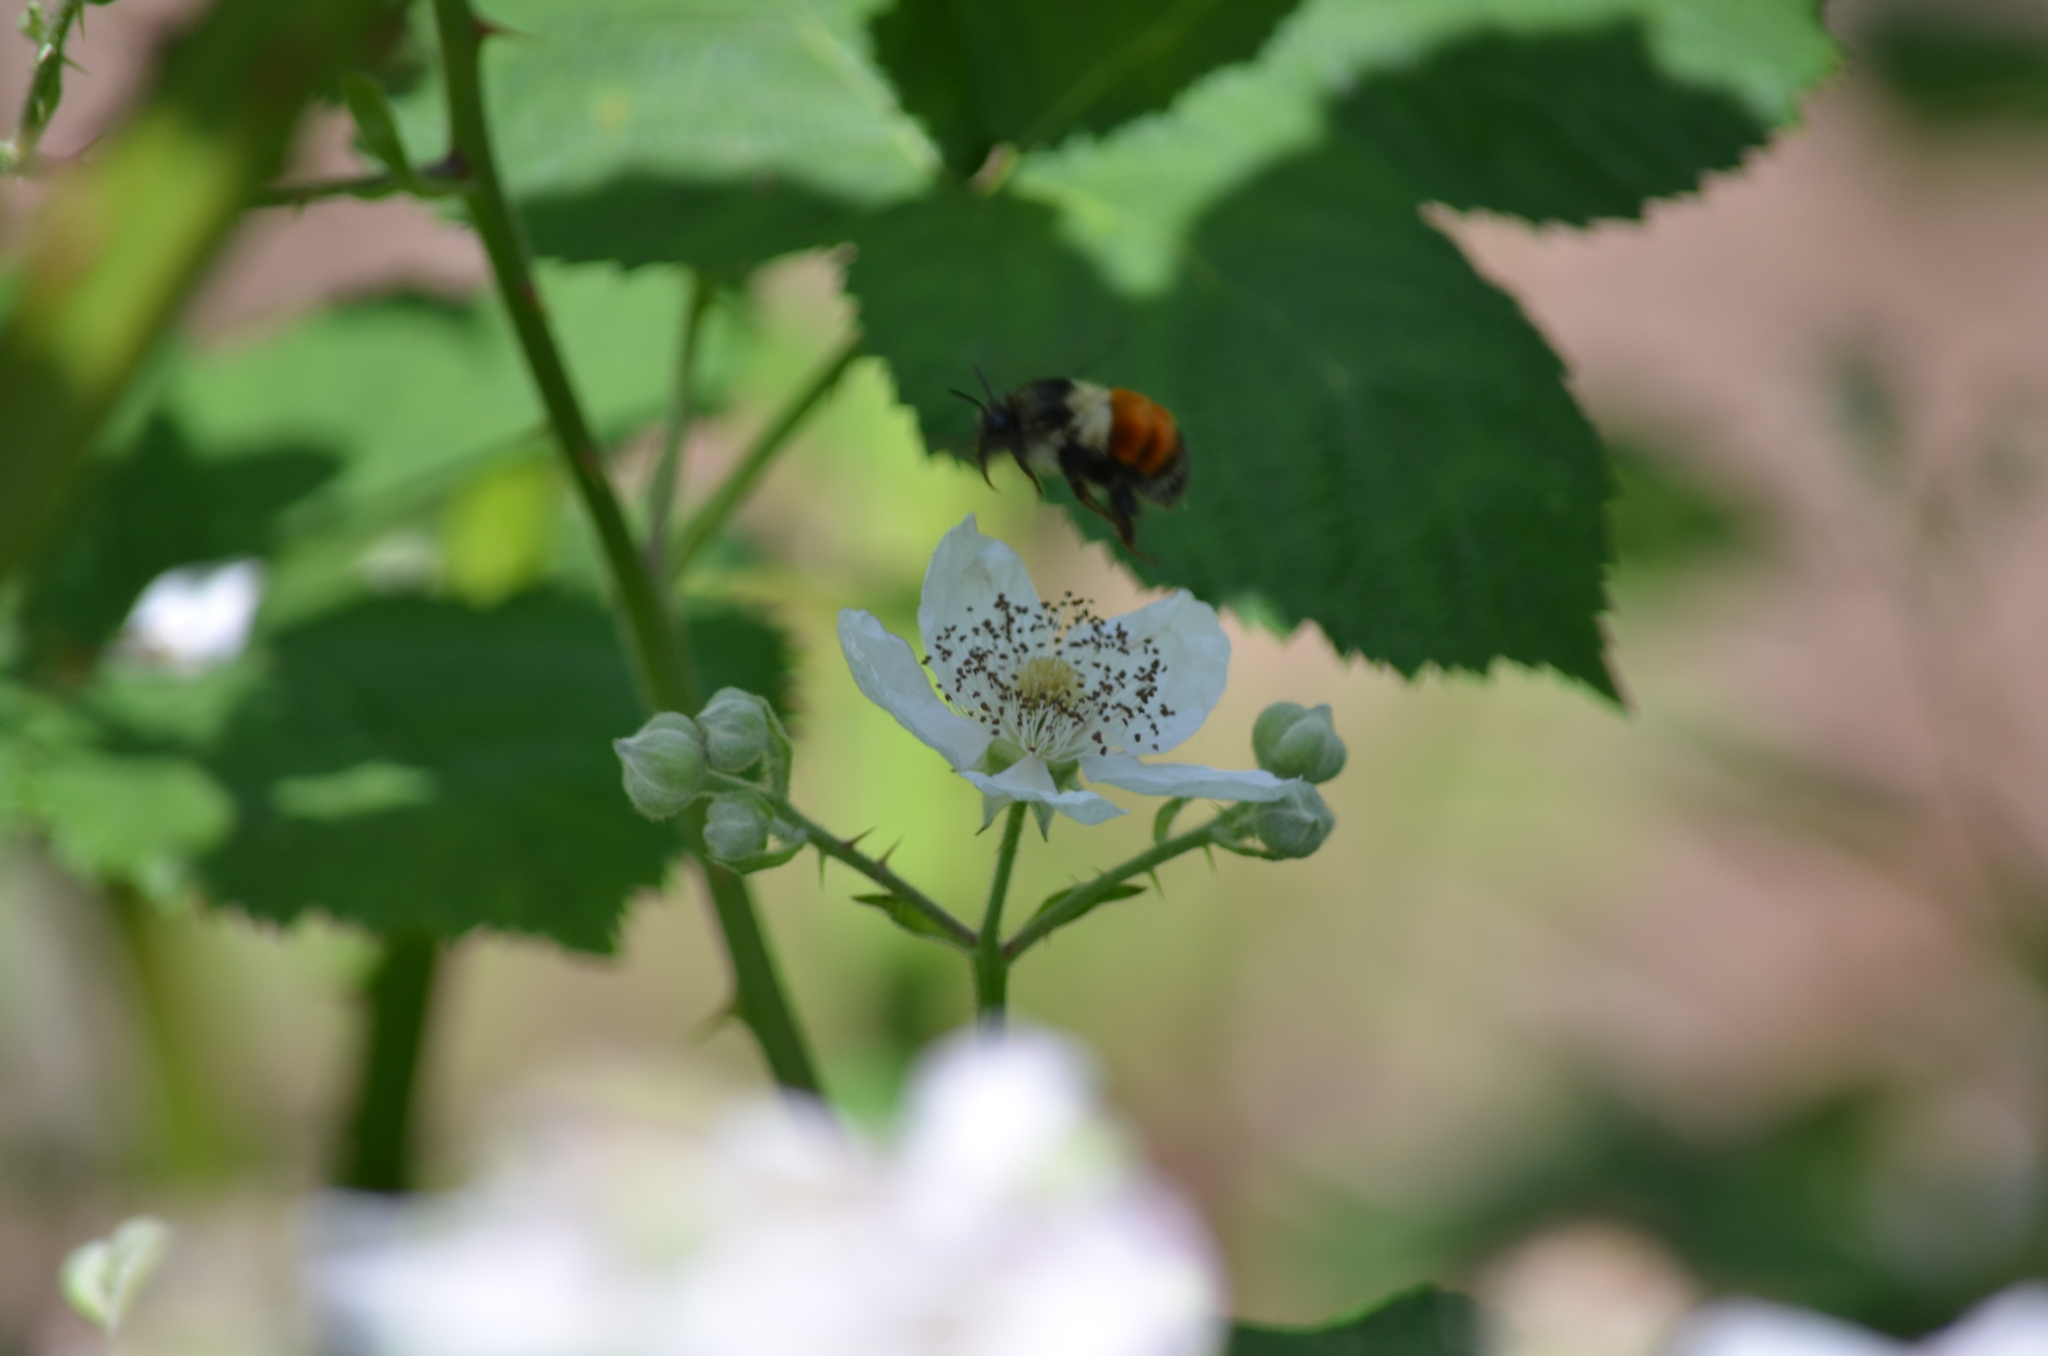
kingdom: Animalia
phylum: Arthropoda
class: Insecta
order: Hymenoptera
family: Apidae
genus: Bombus
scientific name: Bombus melanopygus
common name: Black tail bumble bee
